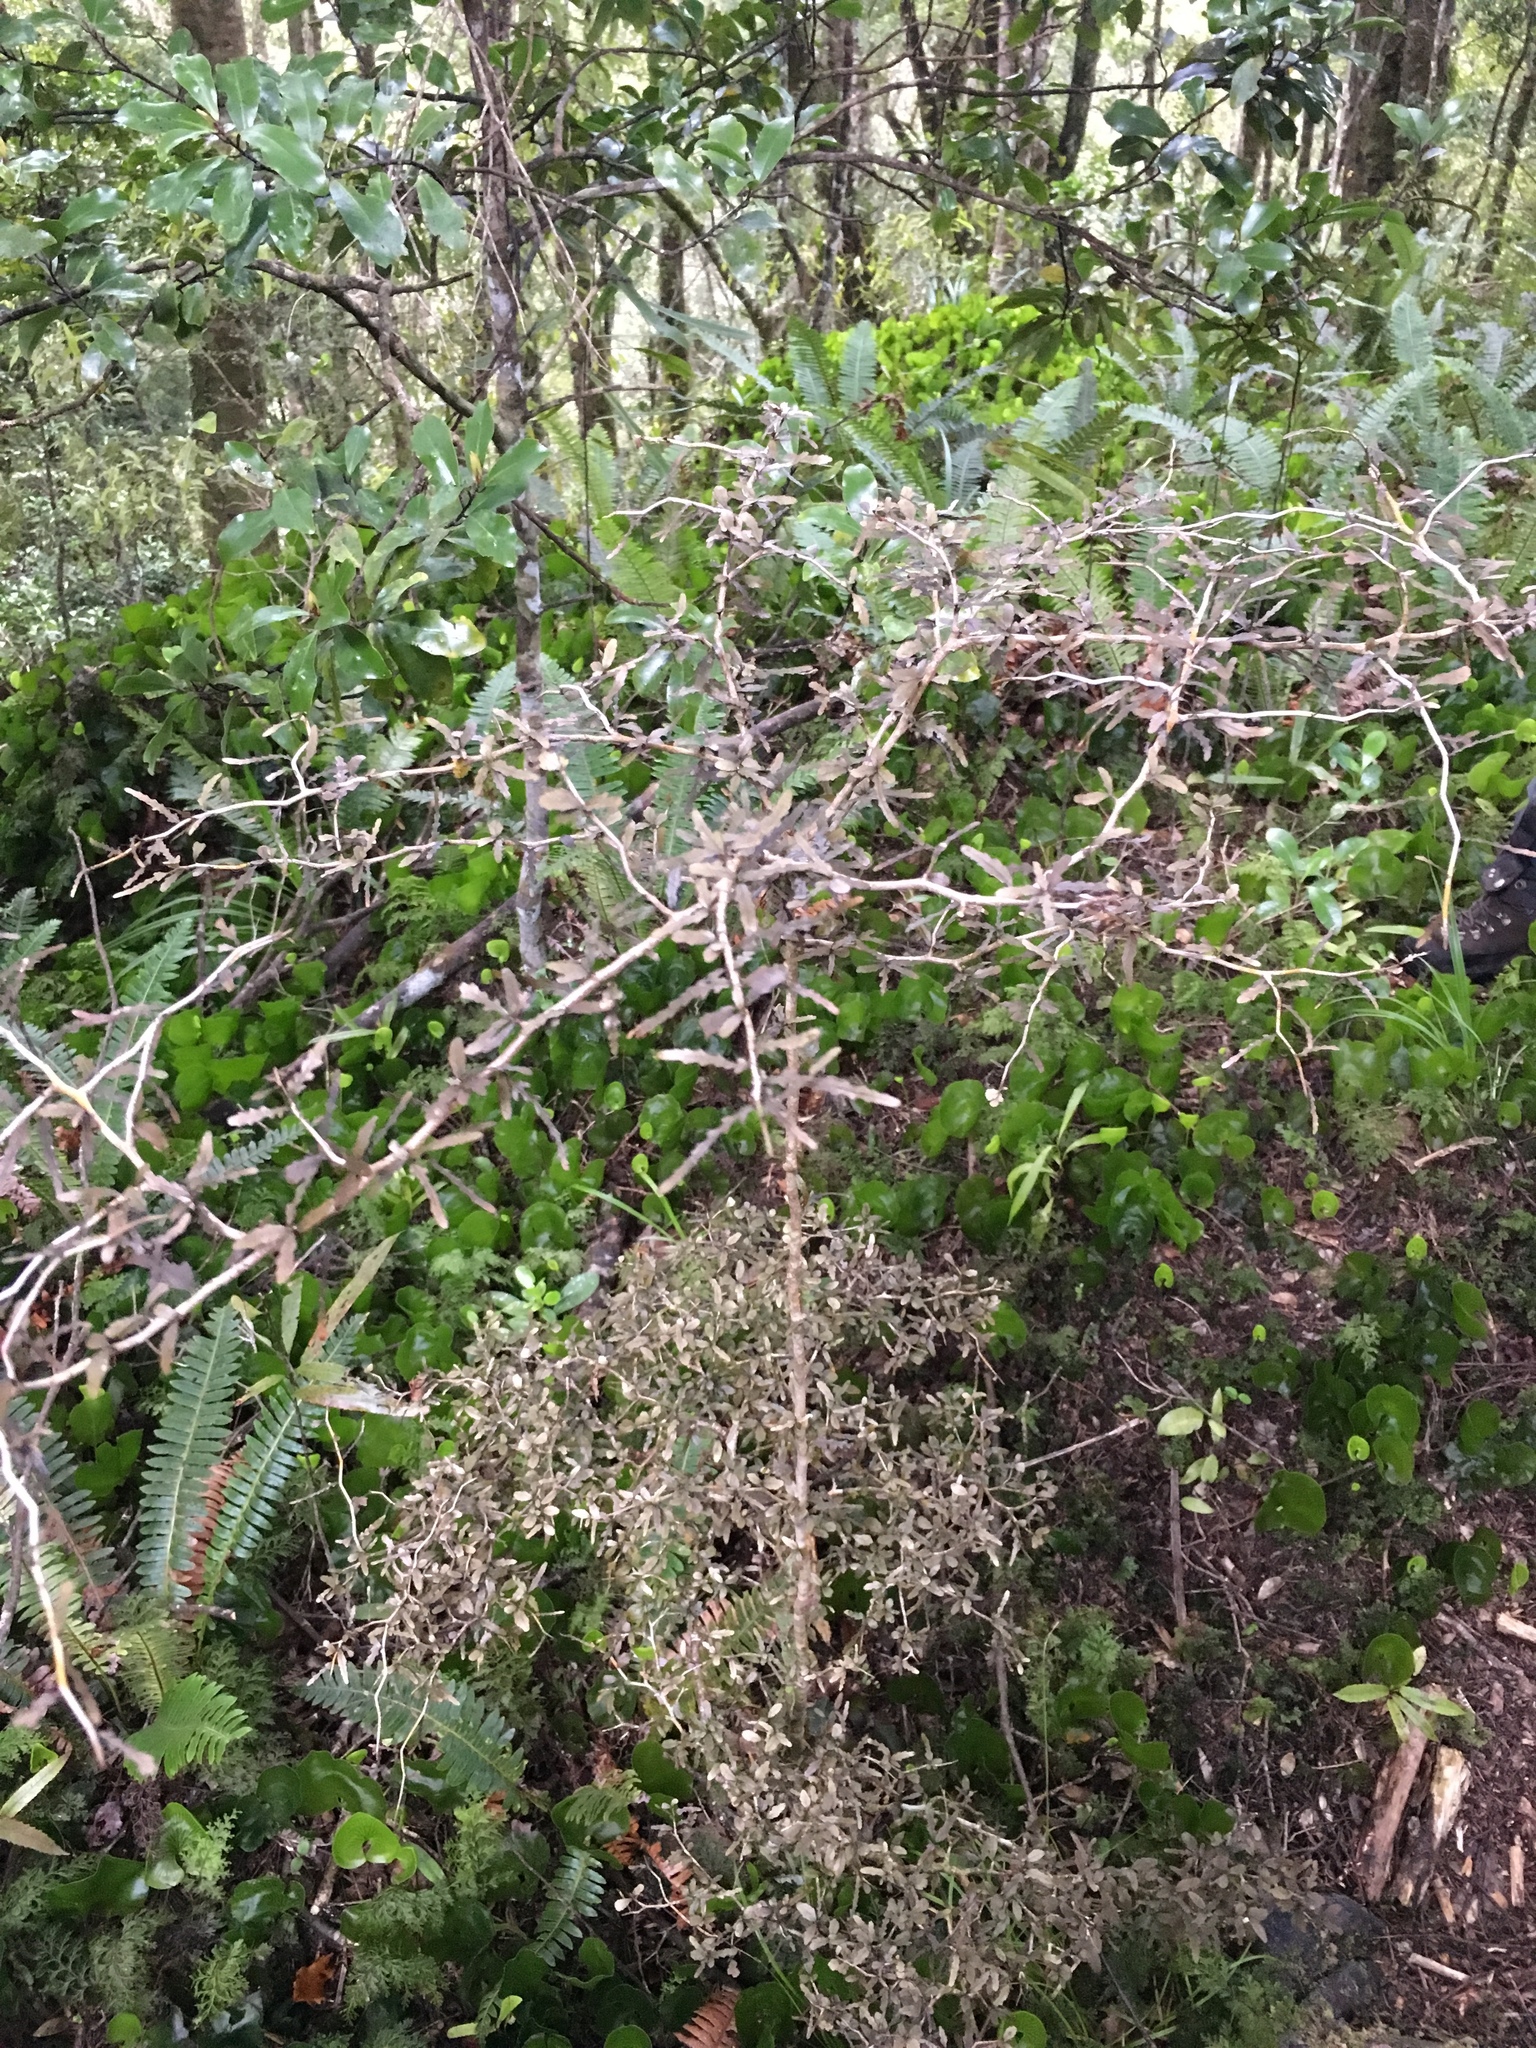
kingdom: Plantae
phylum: Tracheophyta
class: Magnoliopsida
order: Oxalidales
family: Elaeocarpaceae
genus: Elaeocarpus
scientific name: Elaeocarpus hookerianus
